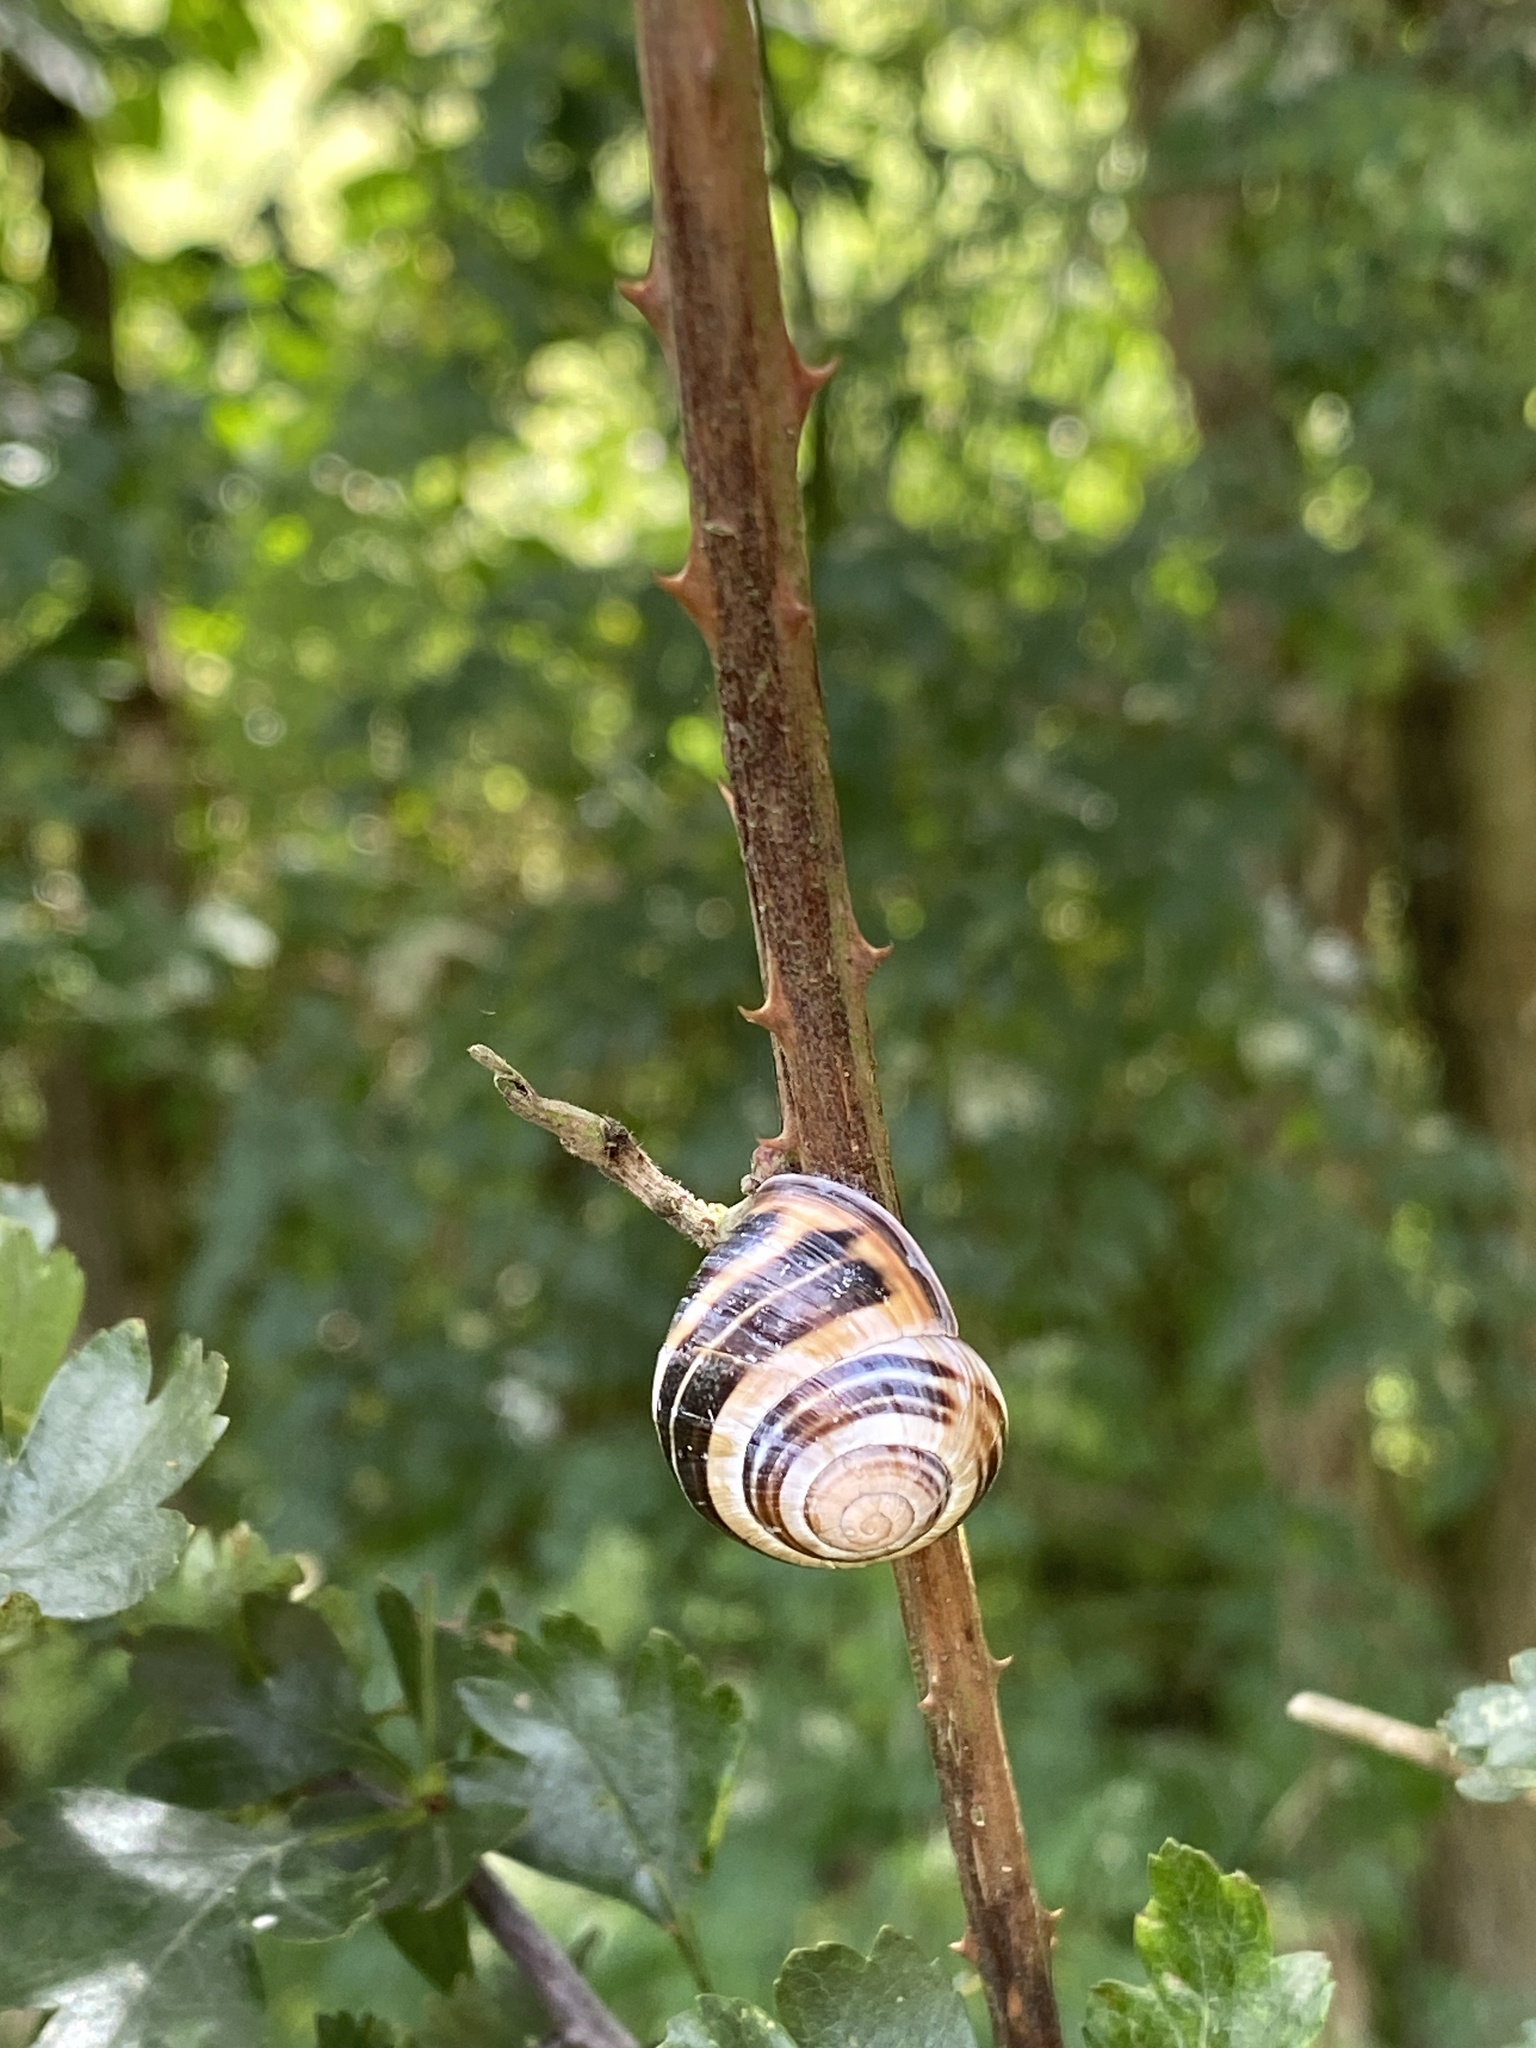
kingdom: Animalia
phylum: Mollusca
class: Gastropoda
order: Stylommatophora
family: Helicidae
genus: Cepaea
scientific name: Cepaea nemoralis
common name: Grovesnail
